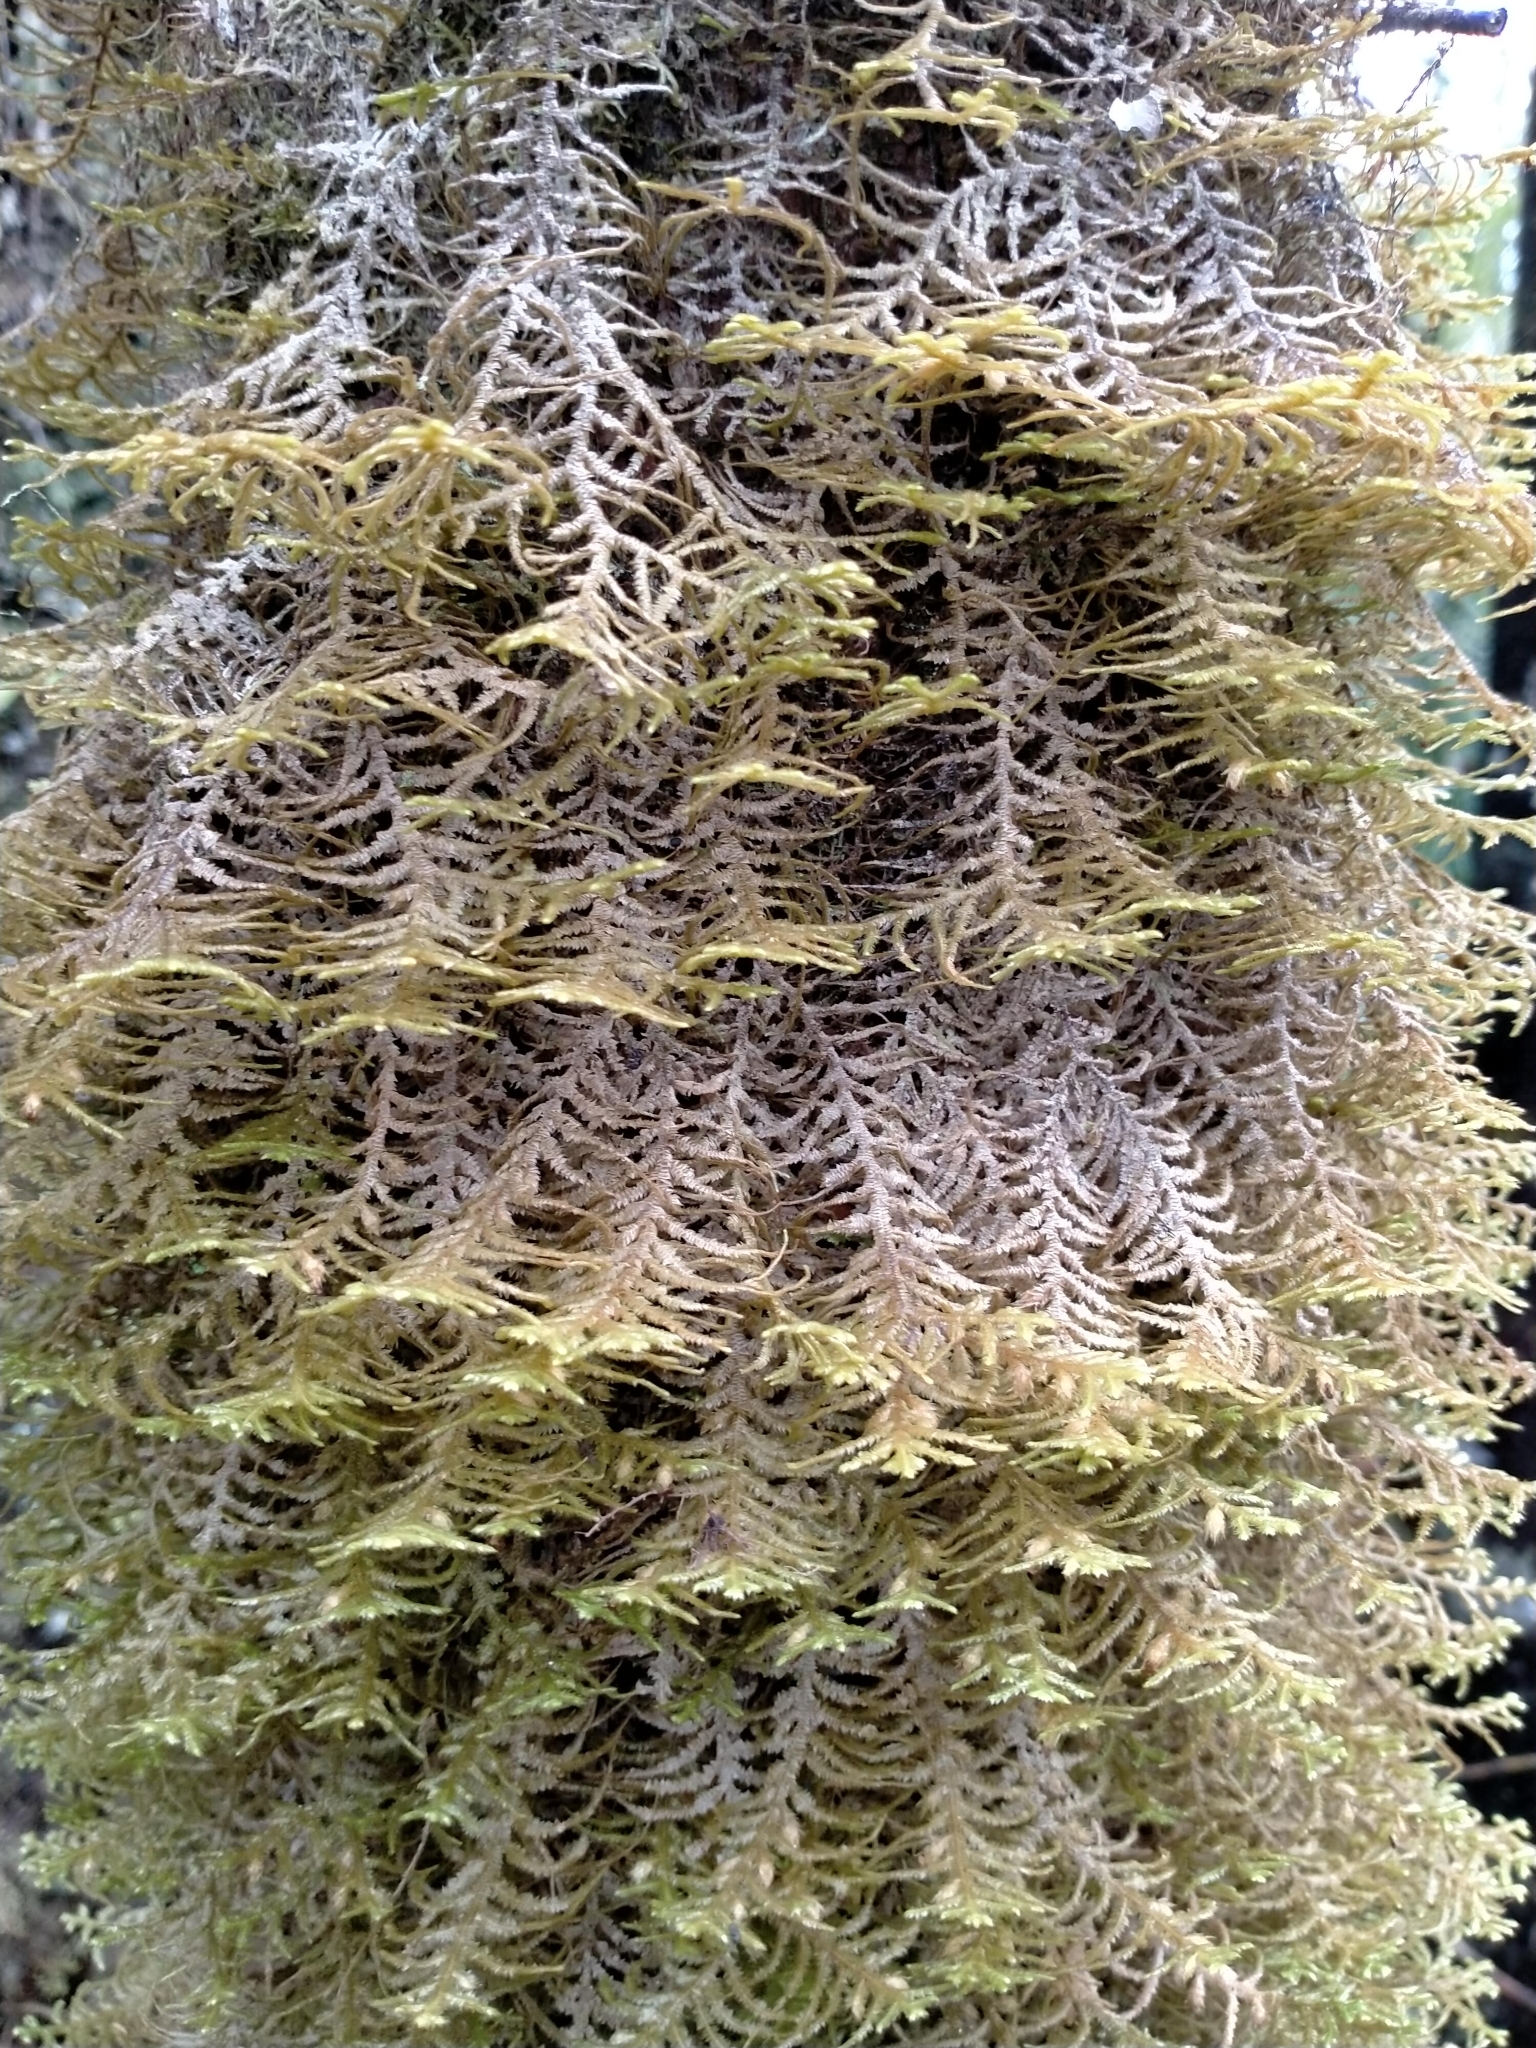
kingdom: Plantae
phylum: Marchantiophyta
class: Jungermanniopsida
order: Jungermanniales
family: Mastigophoraceae
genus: Dendromastigophora
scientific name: Dendromastigophora flagellifera
